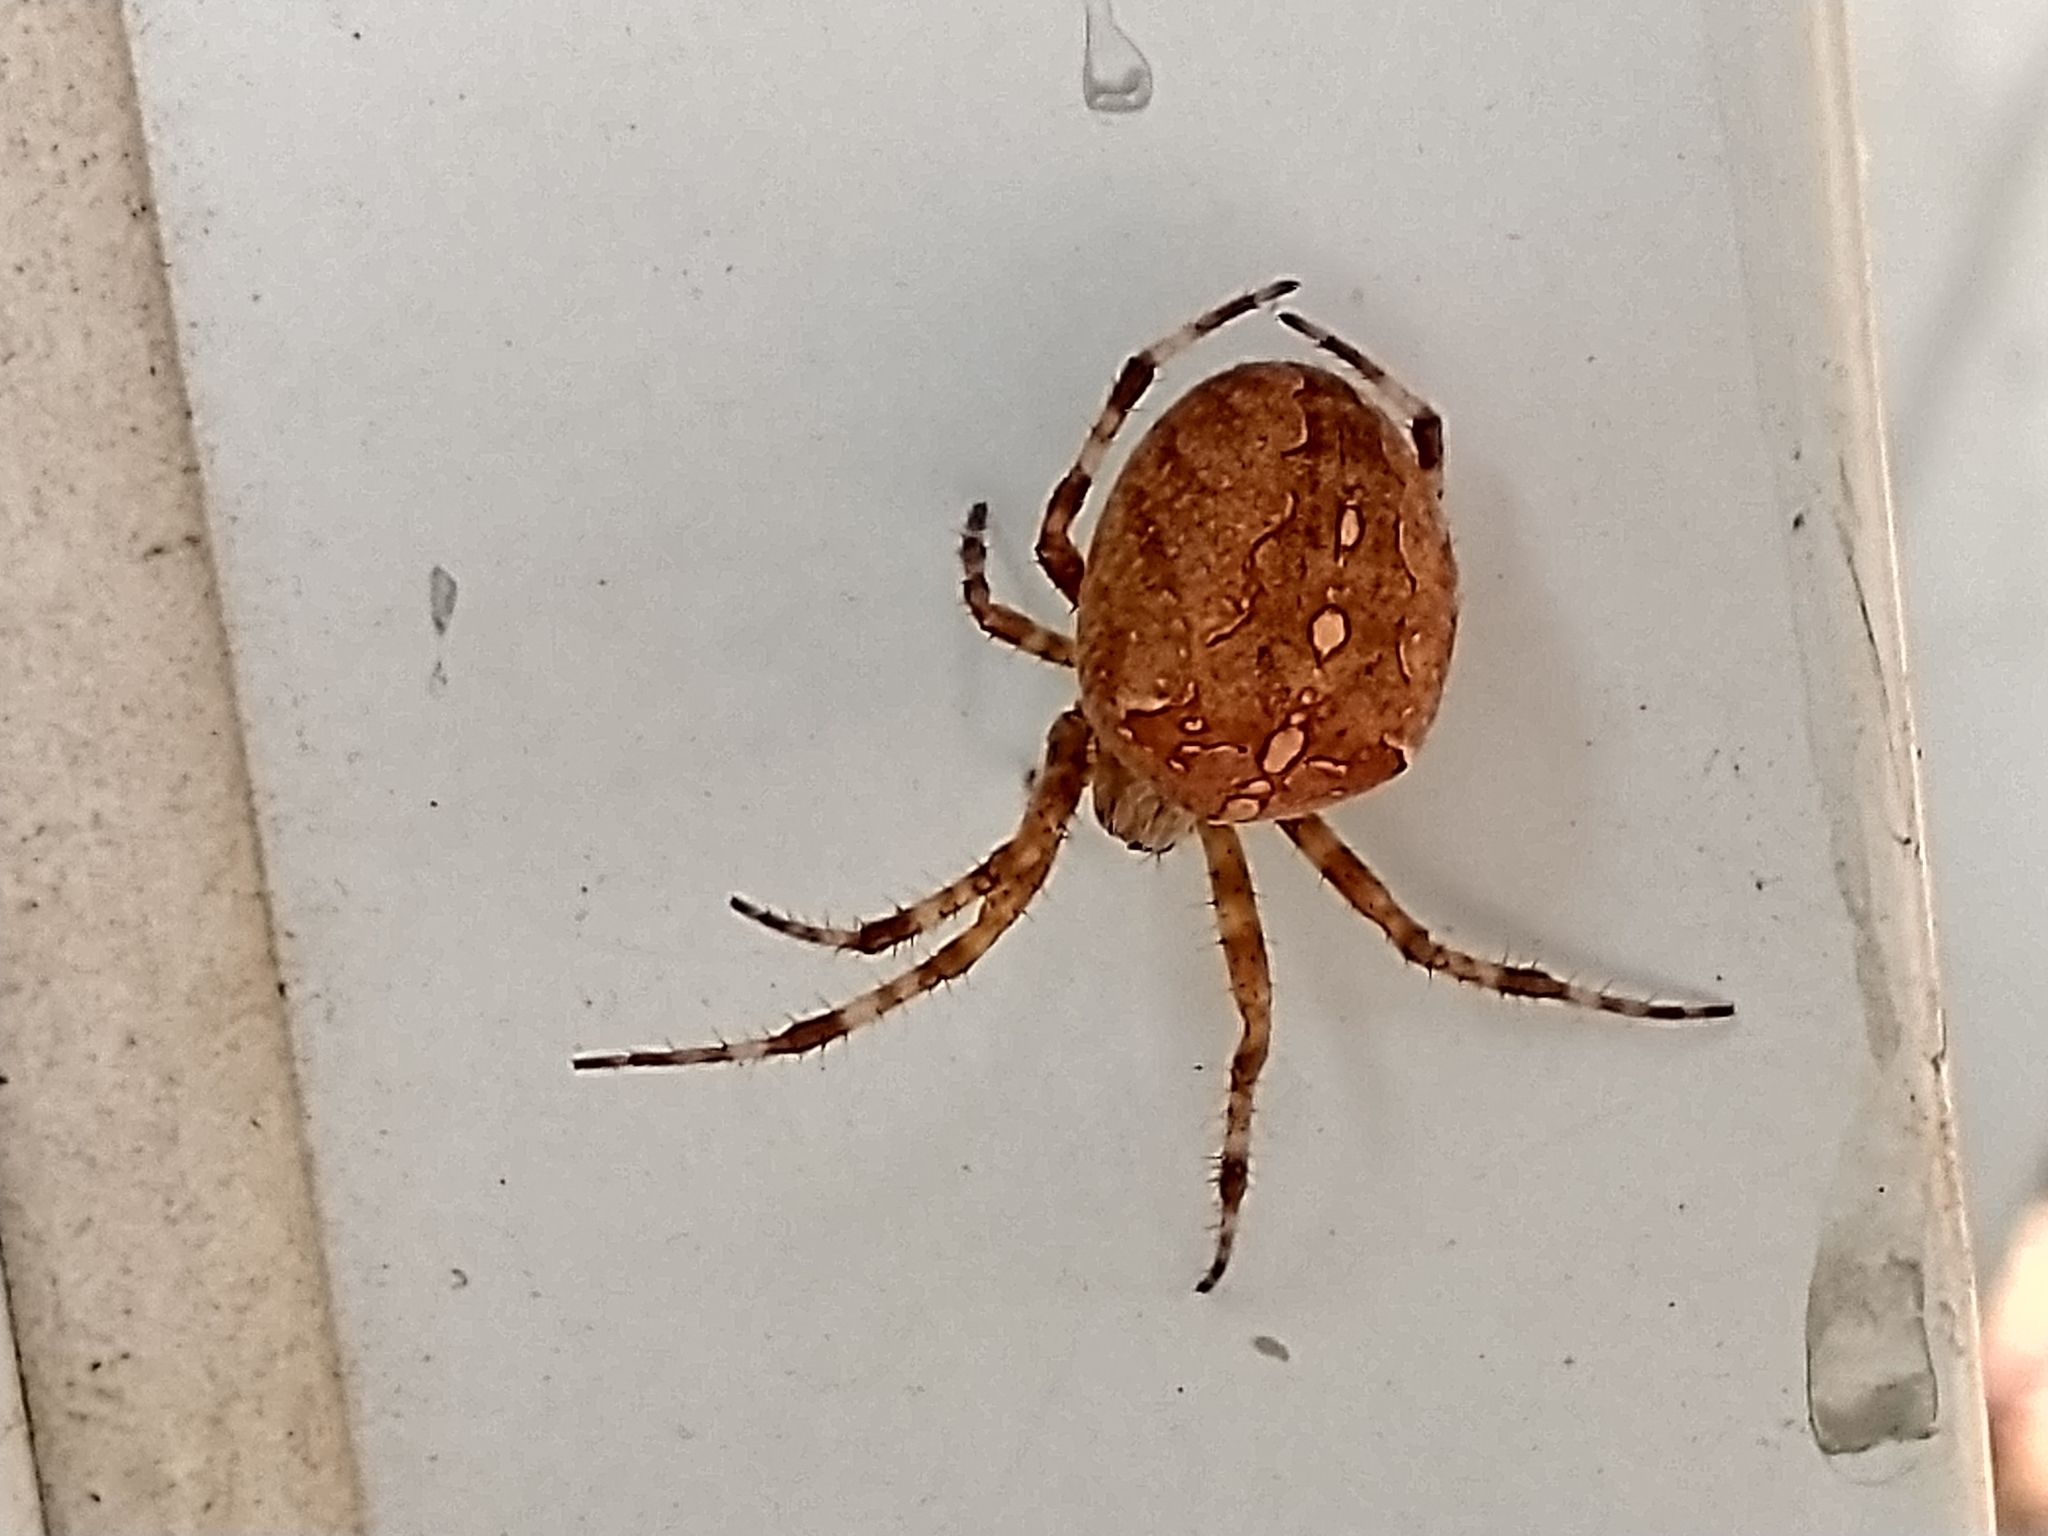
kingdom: Animalia
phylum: Arthropoda
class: Arachnida
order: Araneae
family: Araneidae
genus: Araneus
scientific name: Araneus diadematus
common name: Cross orbweaver
